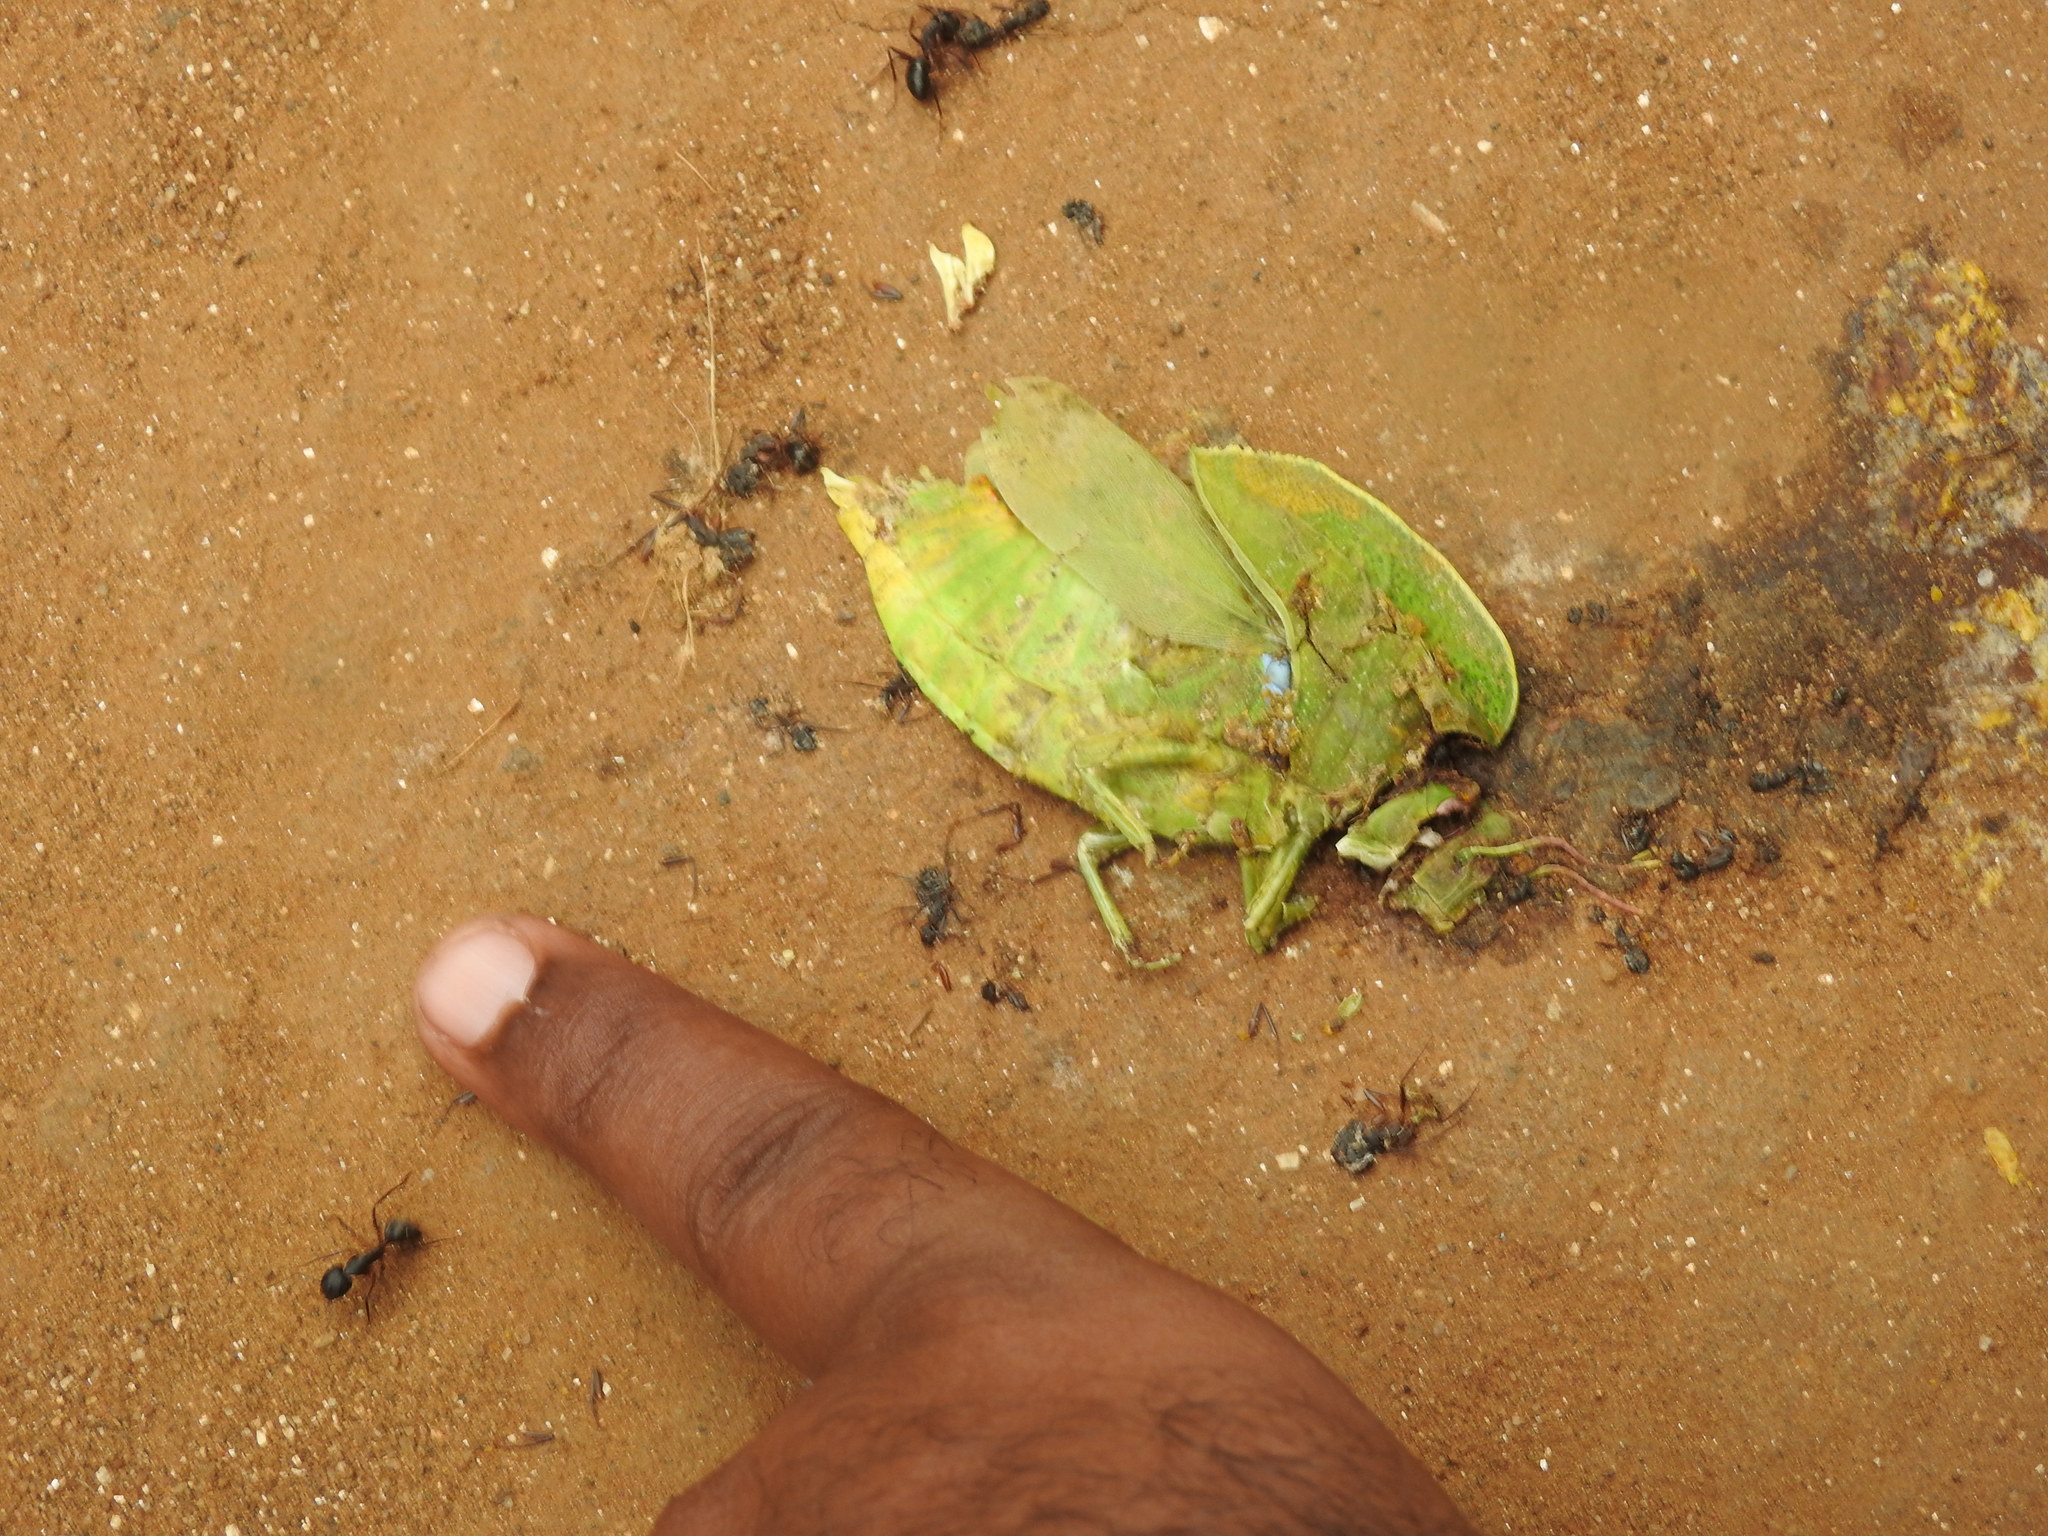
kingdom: Animalia
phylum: Arthropoda
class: Insecta
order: Orthoptera
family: Acrididae
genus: Teratodes
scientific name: Teratodes monticollis
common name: Hooded grasshopper
